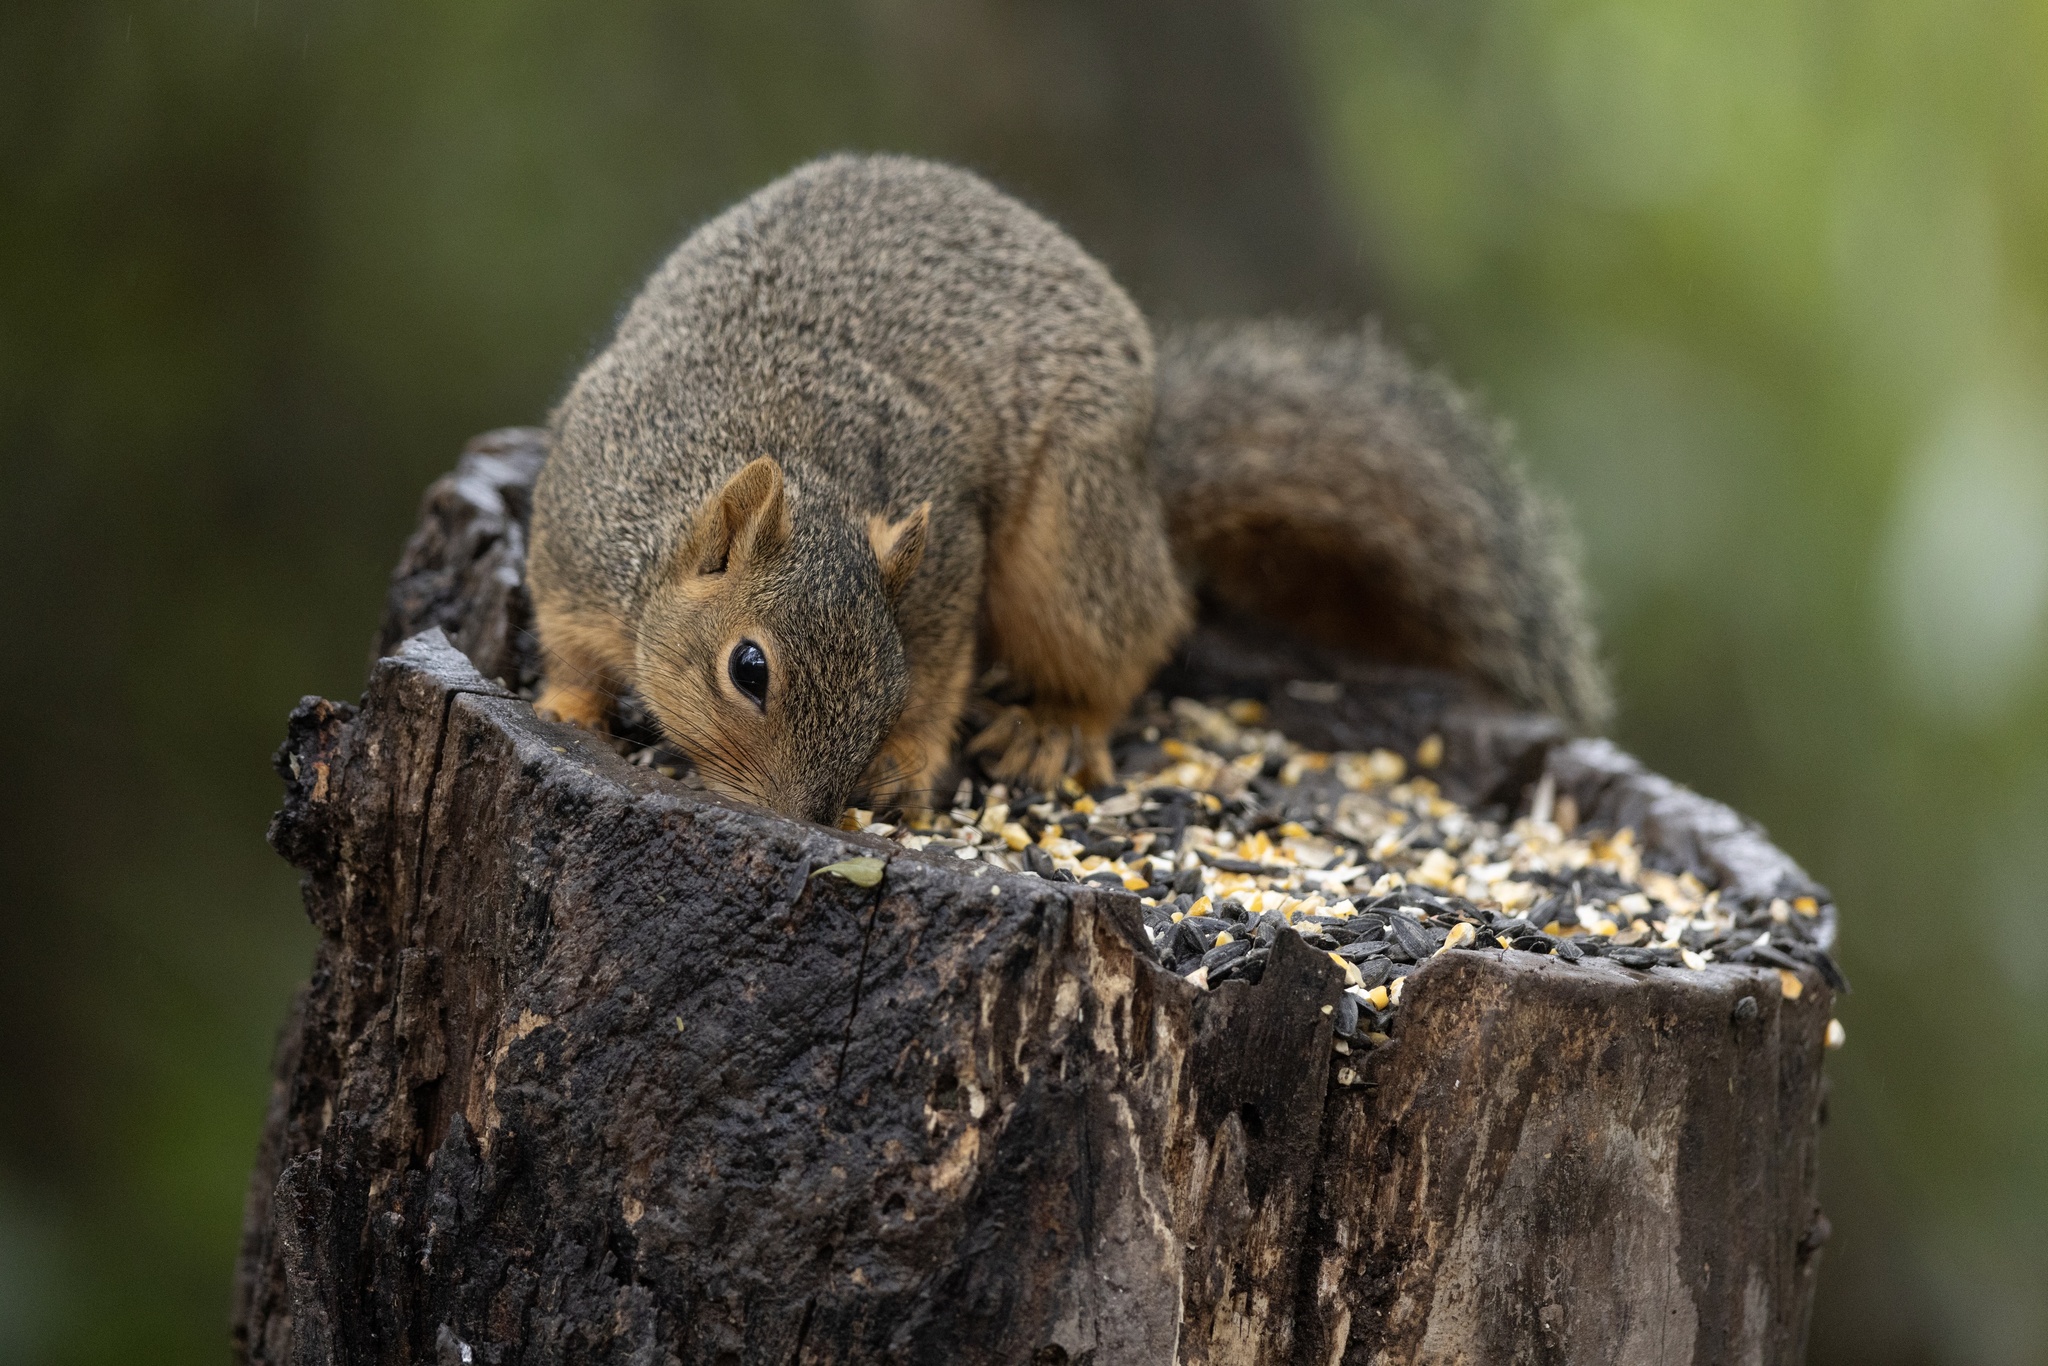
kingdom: Animalia
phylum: Chordata
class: Mammalia
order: Rodentia
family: Sciuridae
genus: Sciurus
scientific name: Sciurus niger
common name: Fox squirrel
